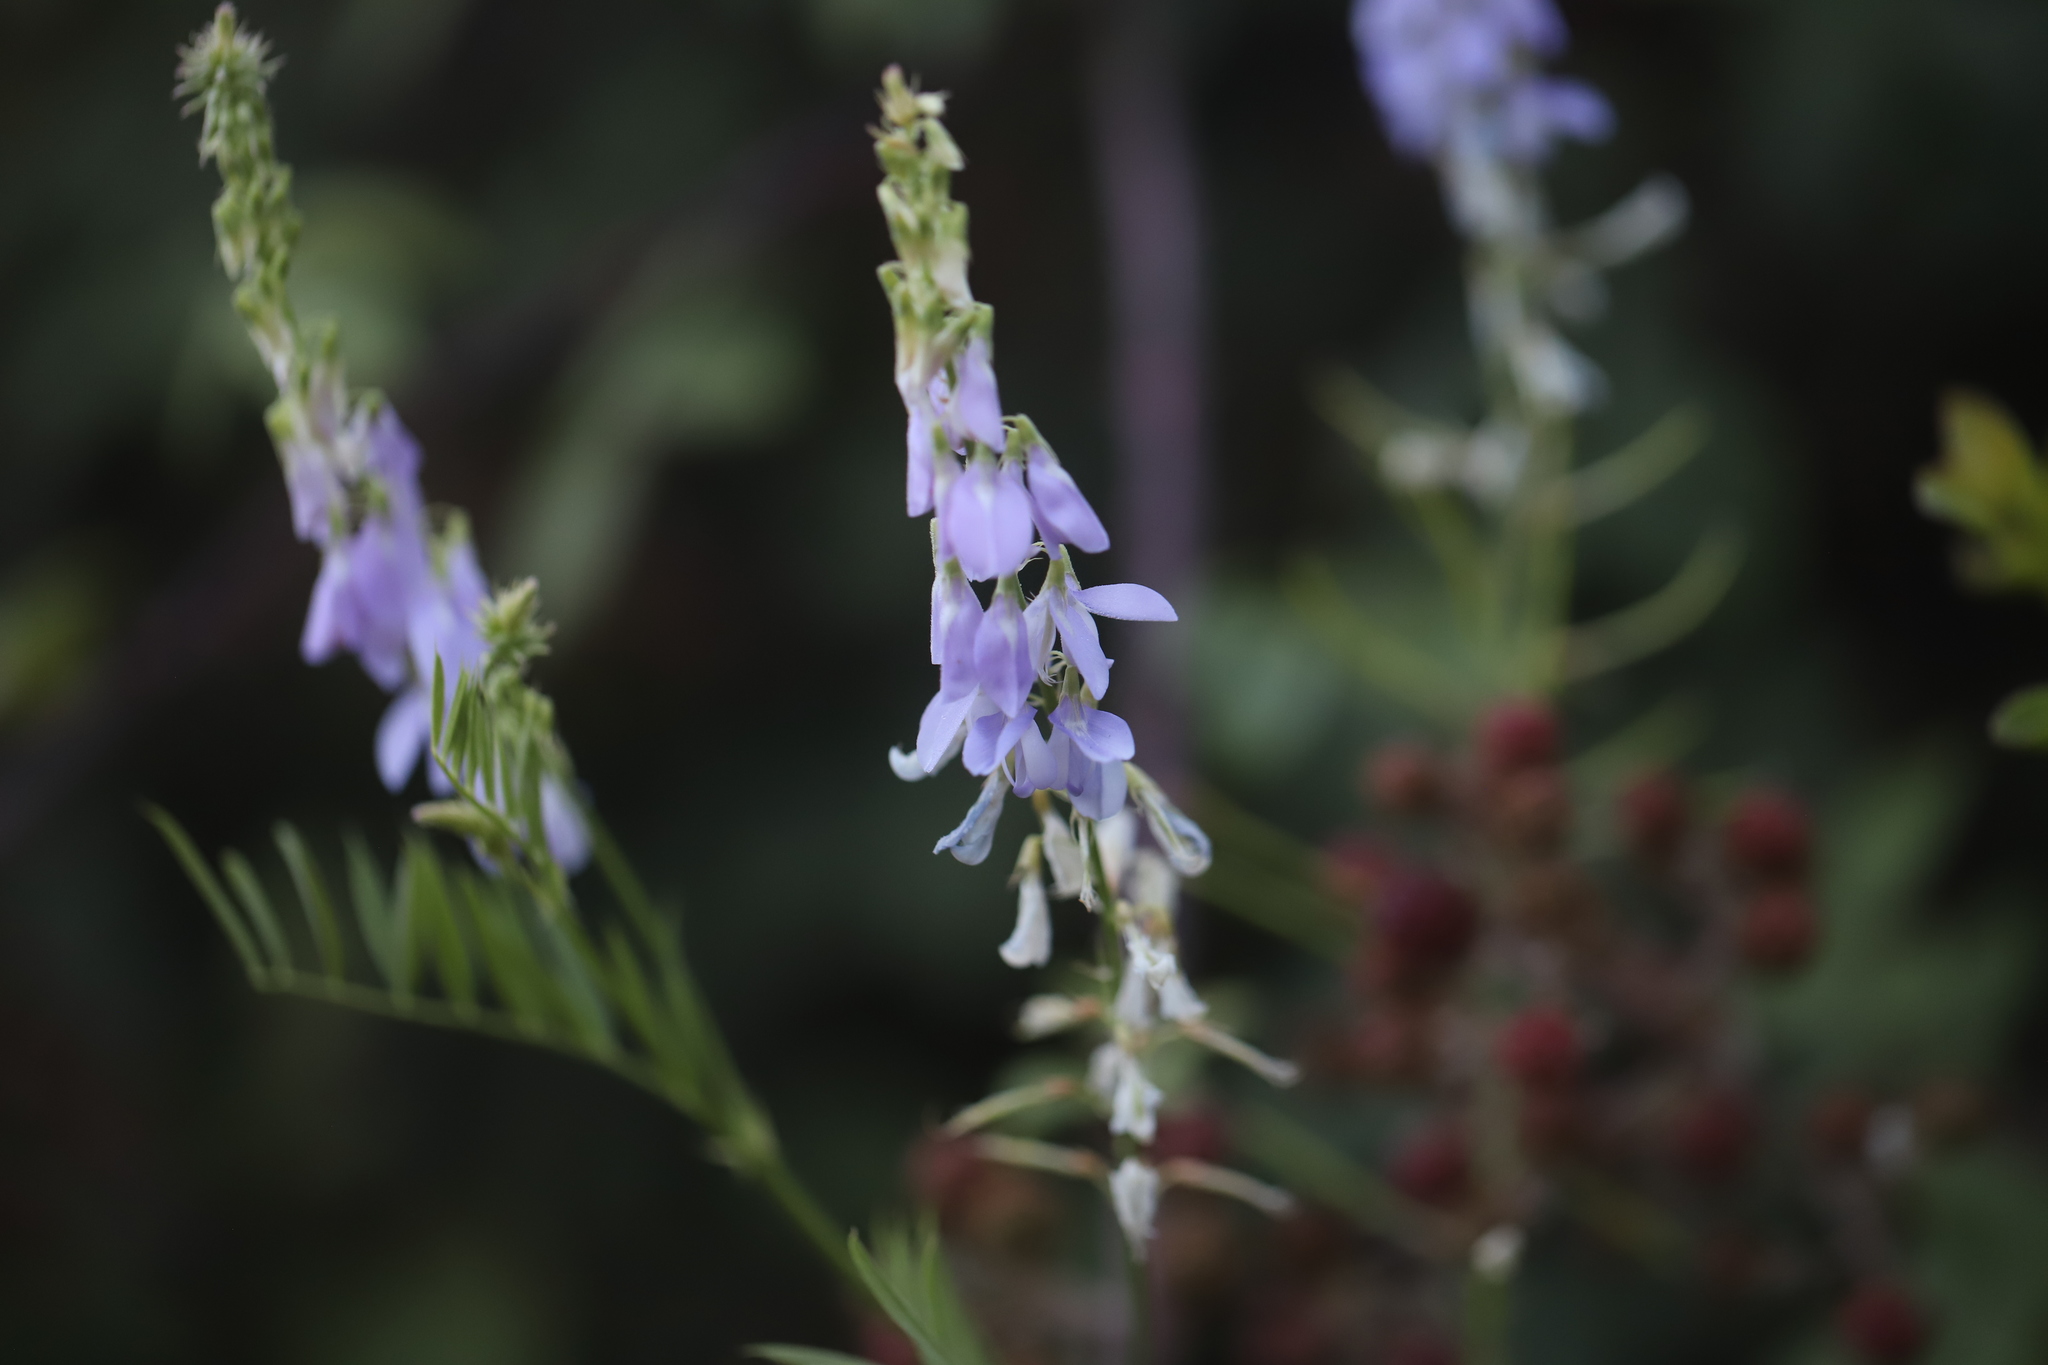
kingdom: Plantae
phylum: Tracheophyta
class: Magnoliopsida
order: Fabales
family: Fabaceae
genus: Galega
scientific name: Galega officinalis
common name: Goat's-rue
